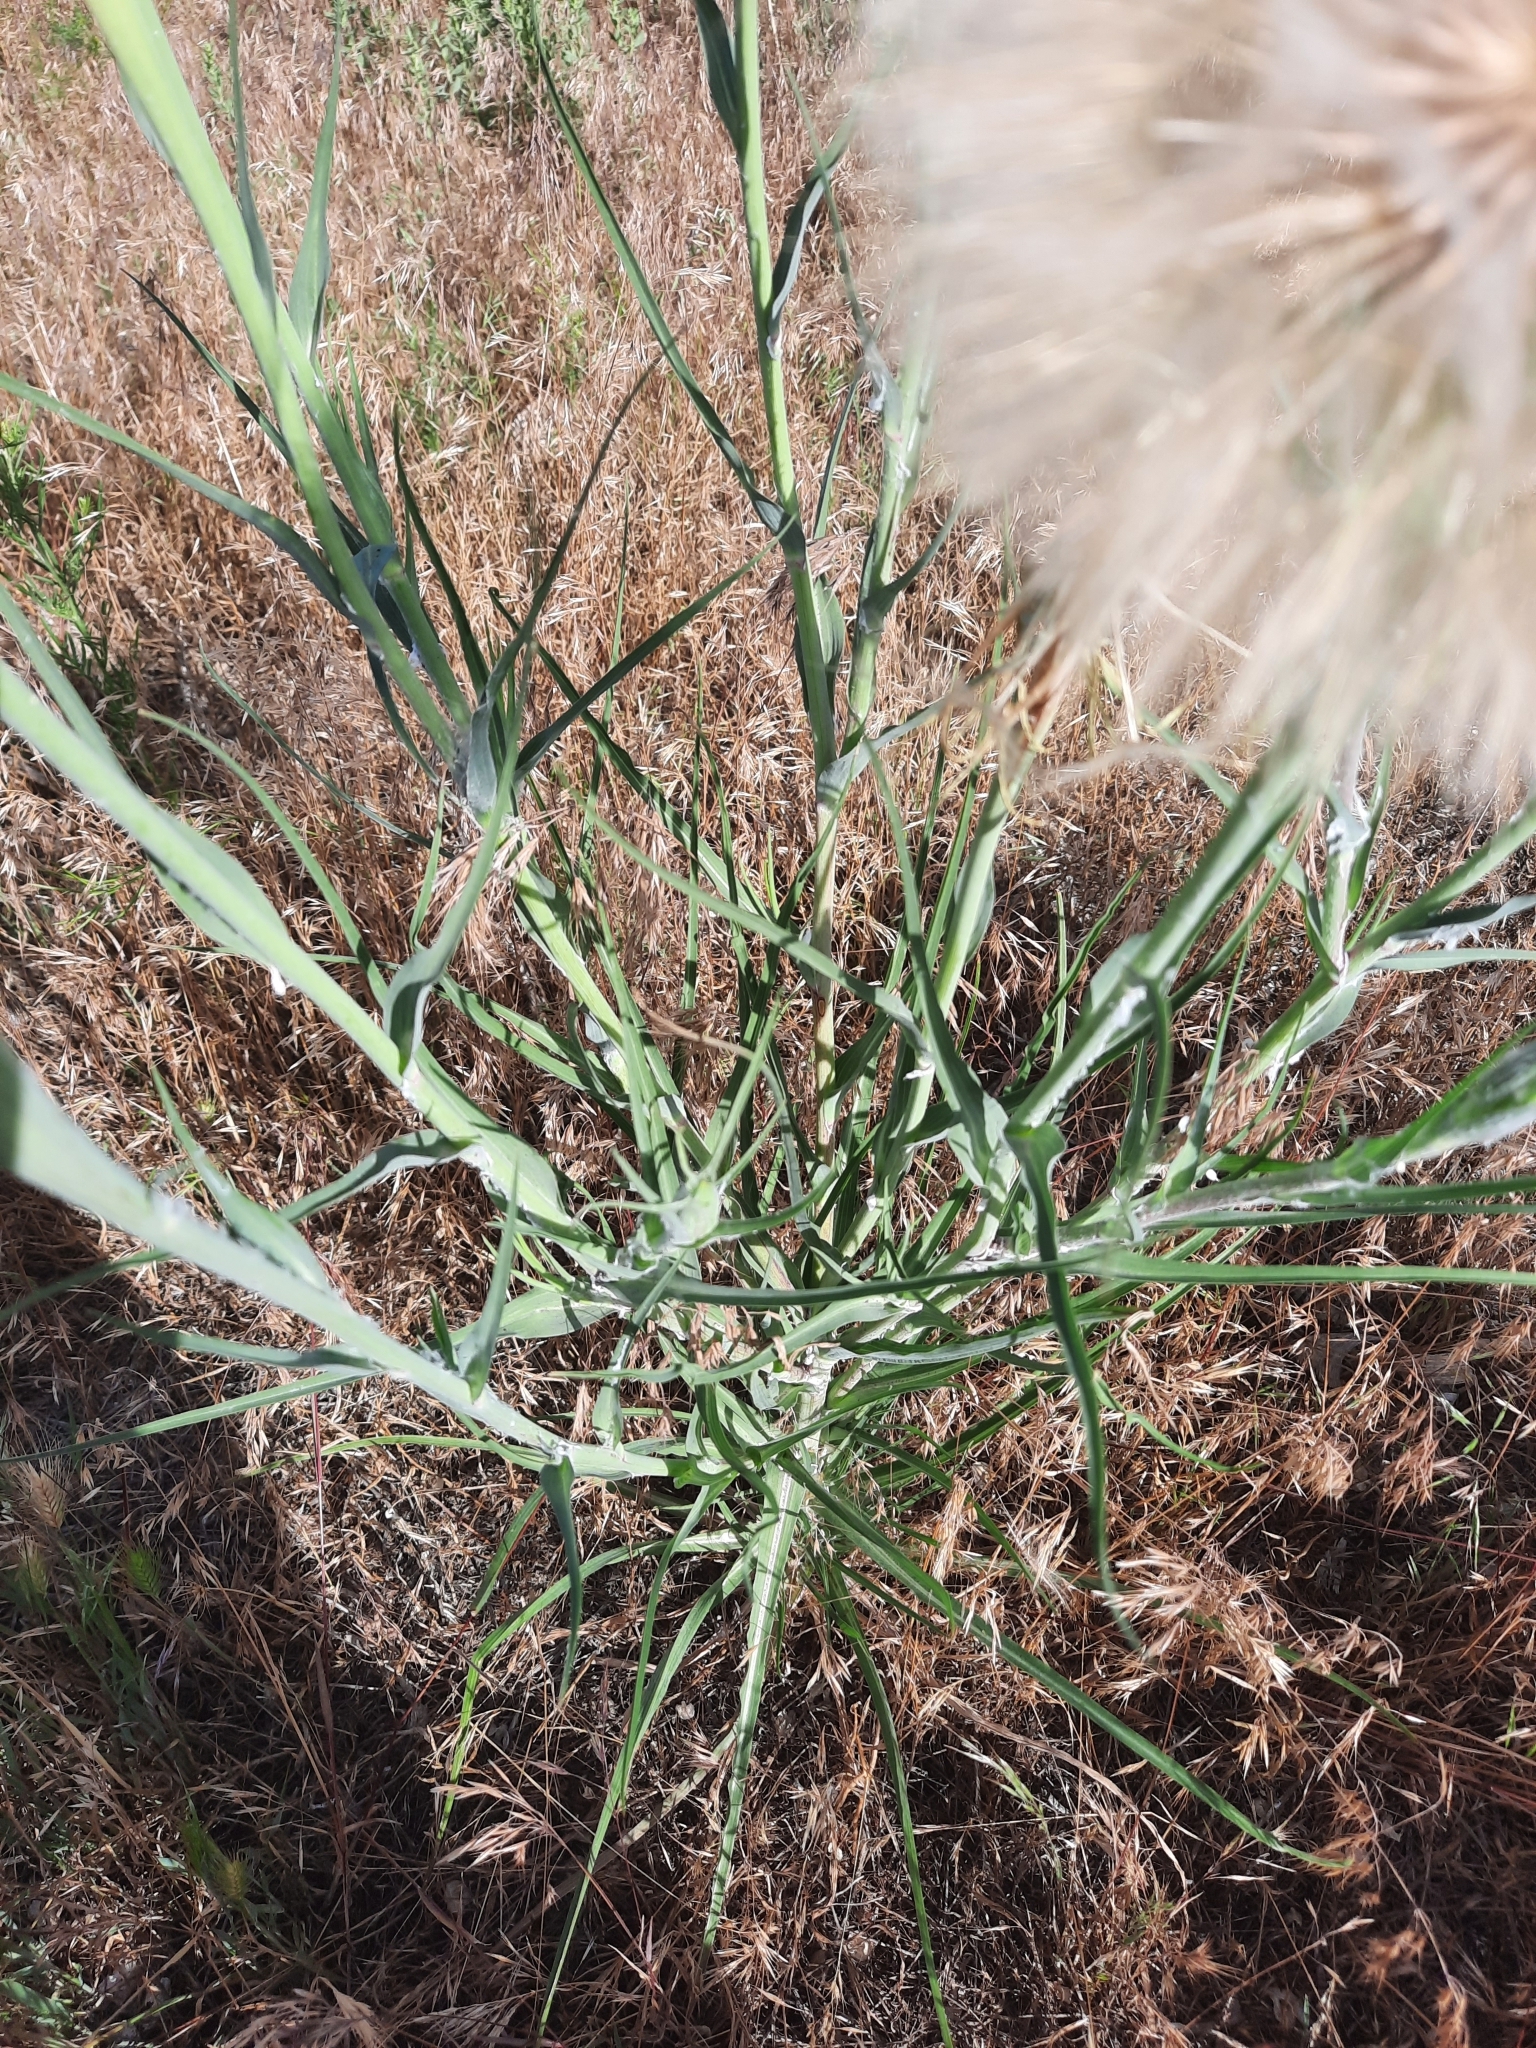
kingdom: Plantae
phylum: Tracheophyta
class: Magnoliopsida
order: Asterales
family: Asteraceae
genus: Tragopogon
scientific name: Tragopogon dubius
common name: Yellow salsify
